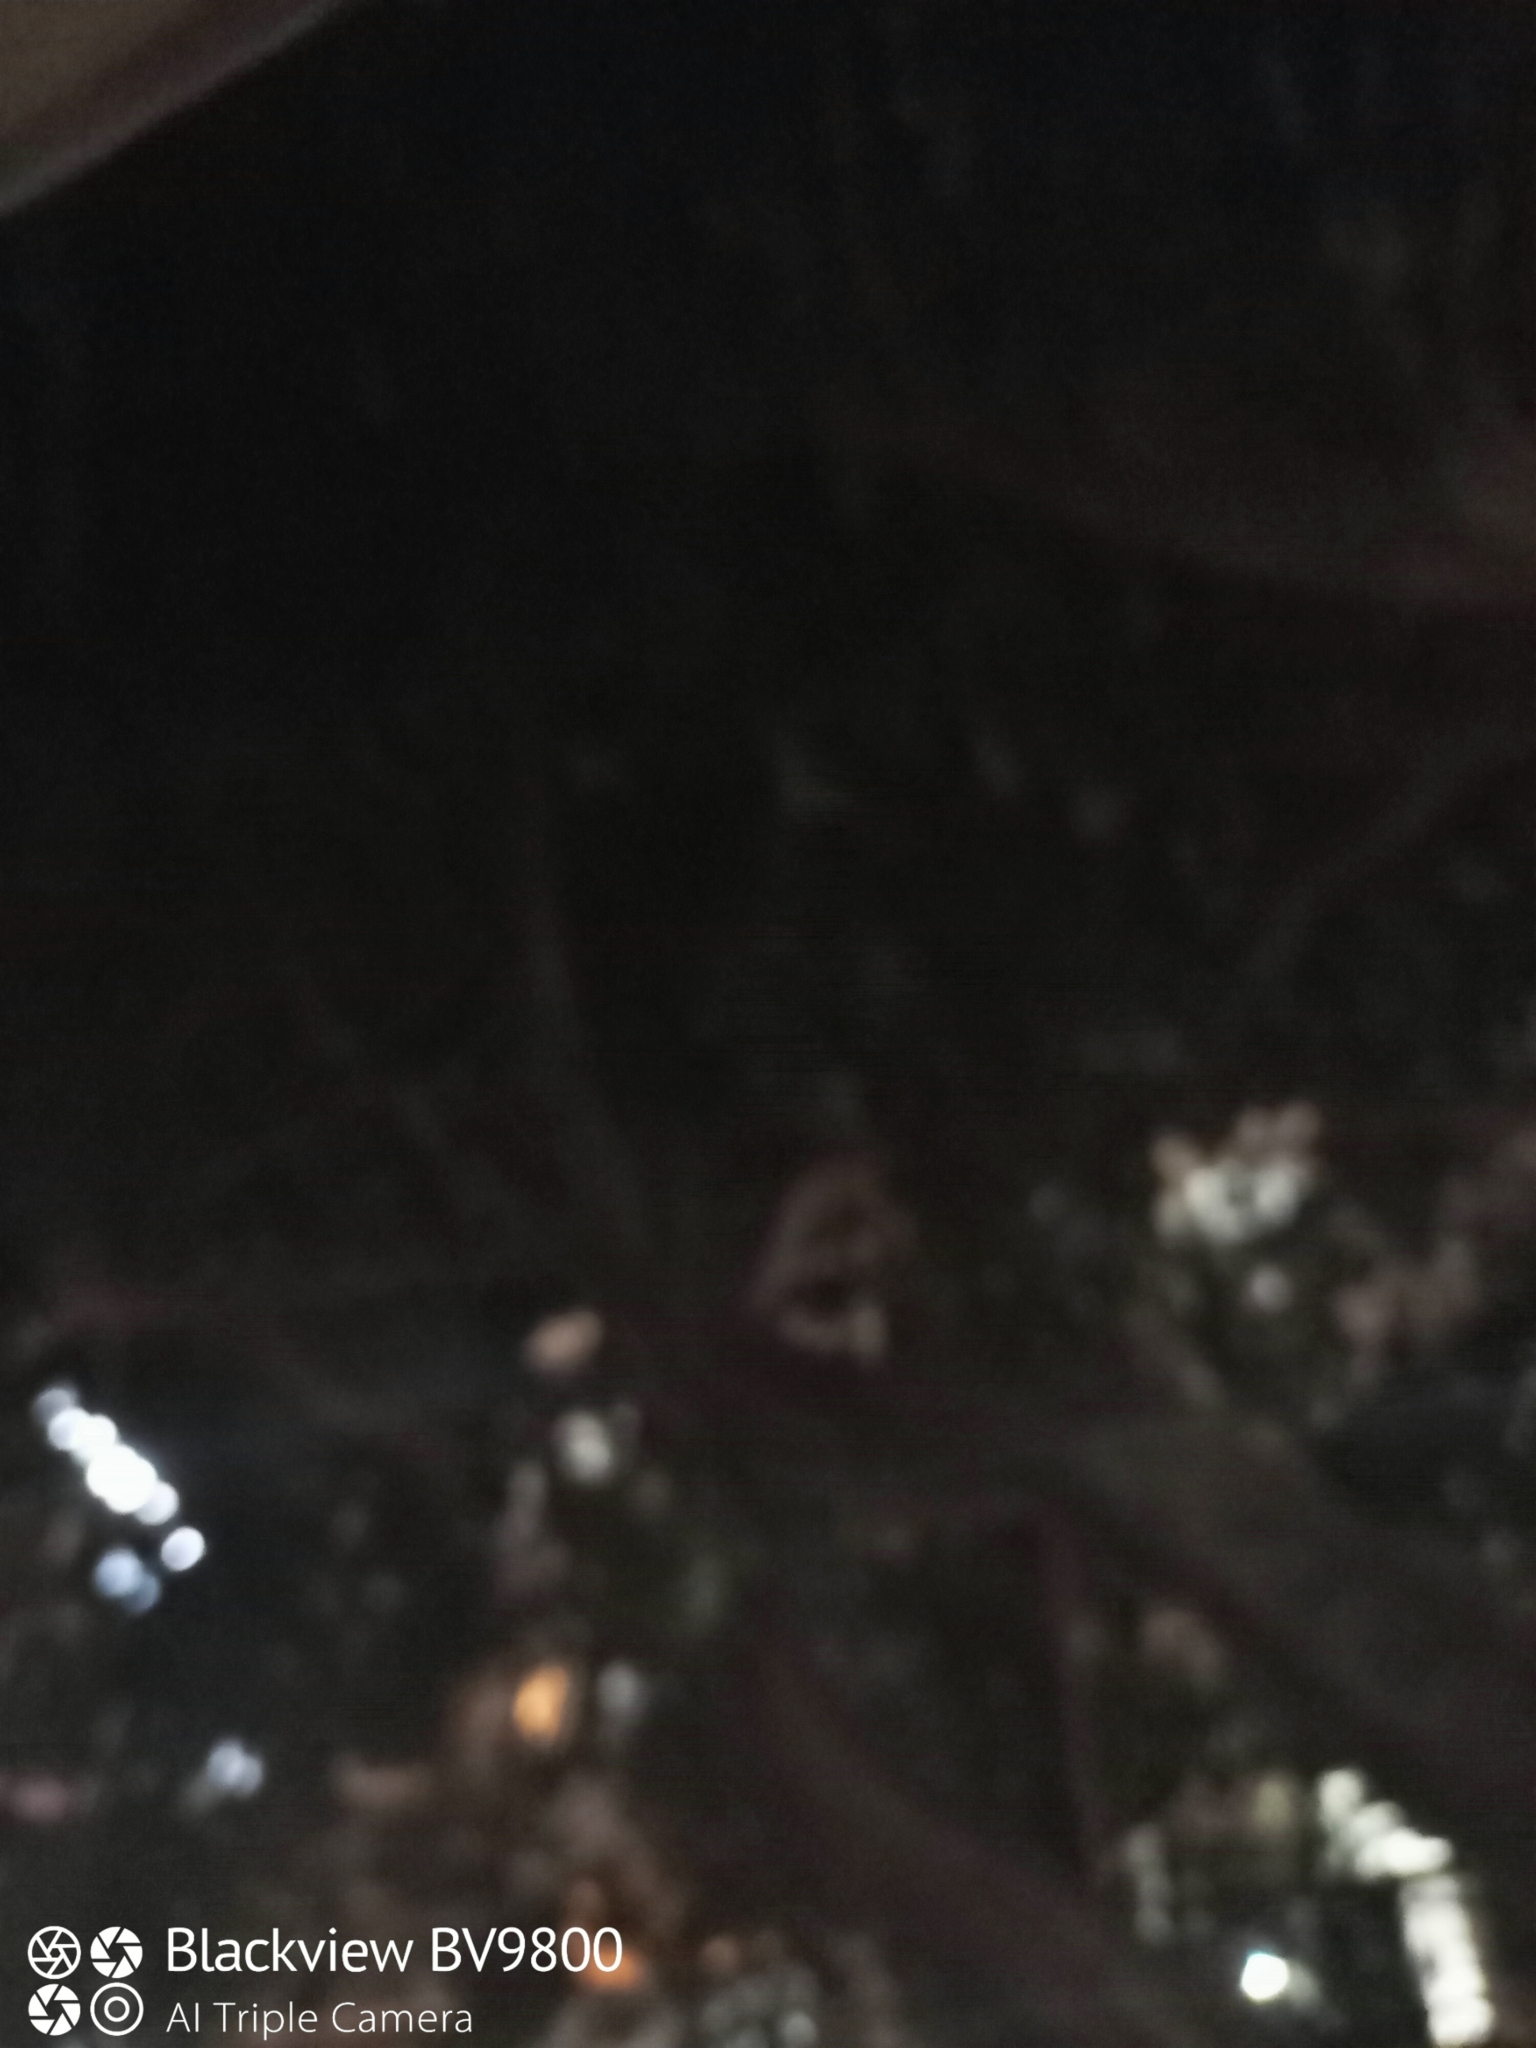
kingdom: Animalia
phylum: Chordata
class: Mammalia
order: Chiroptera
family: Pteropodidae
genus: Pteropus
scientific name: Pteropus poliocephalus
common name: Gray-headed flying fox
